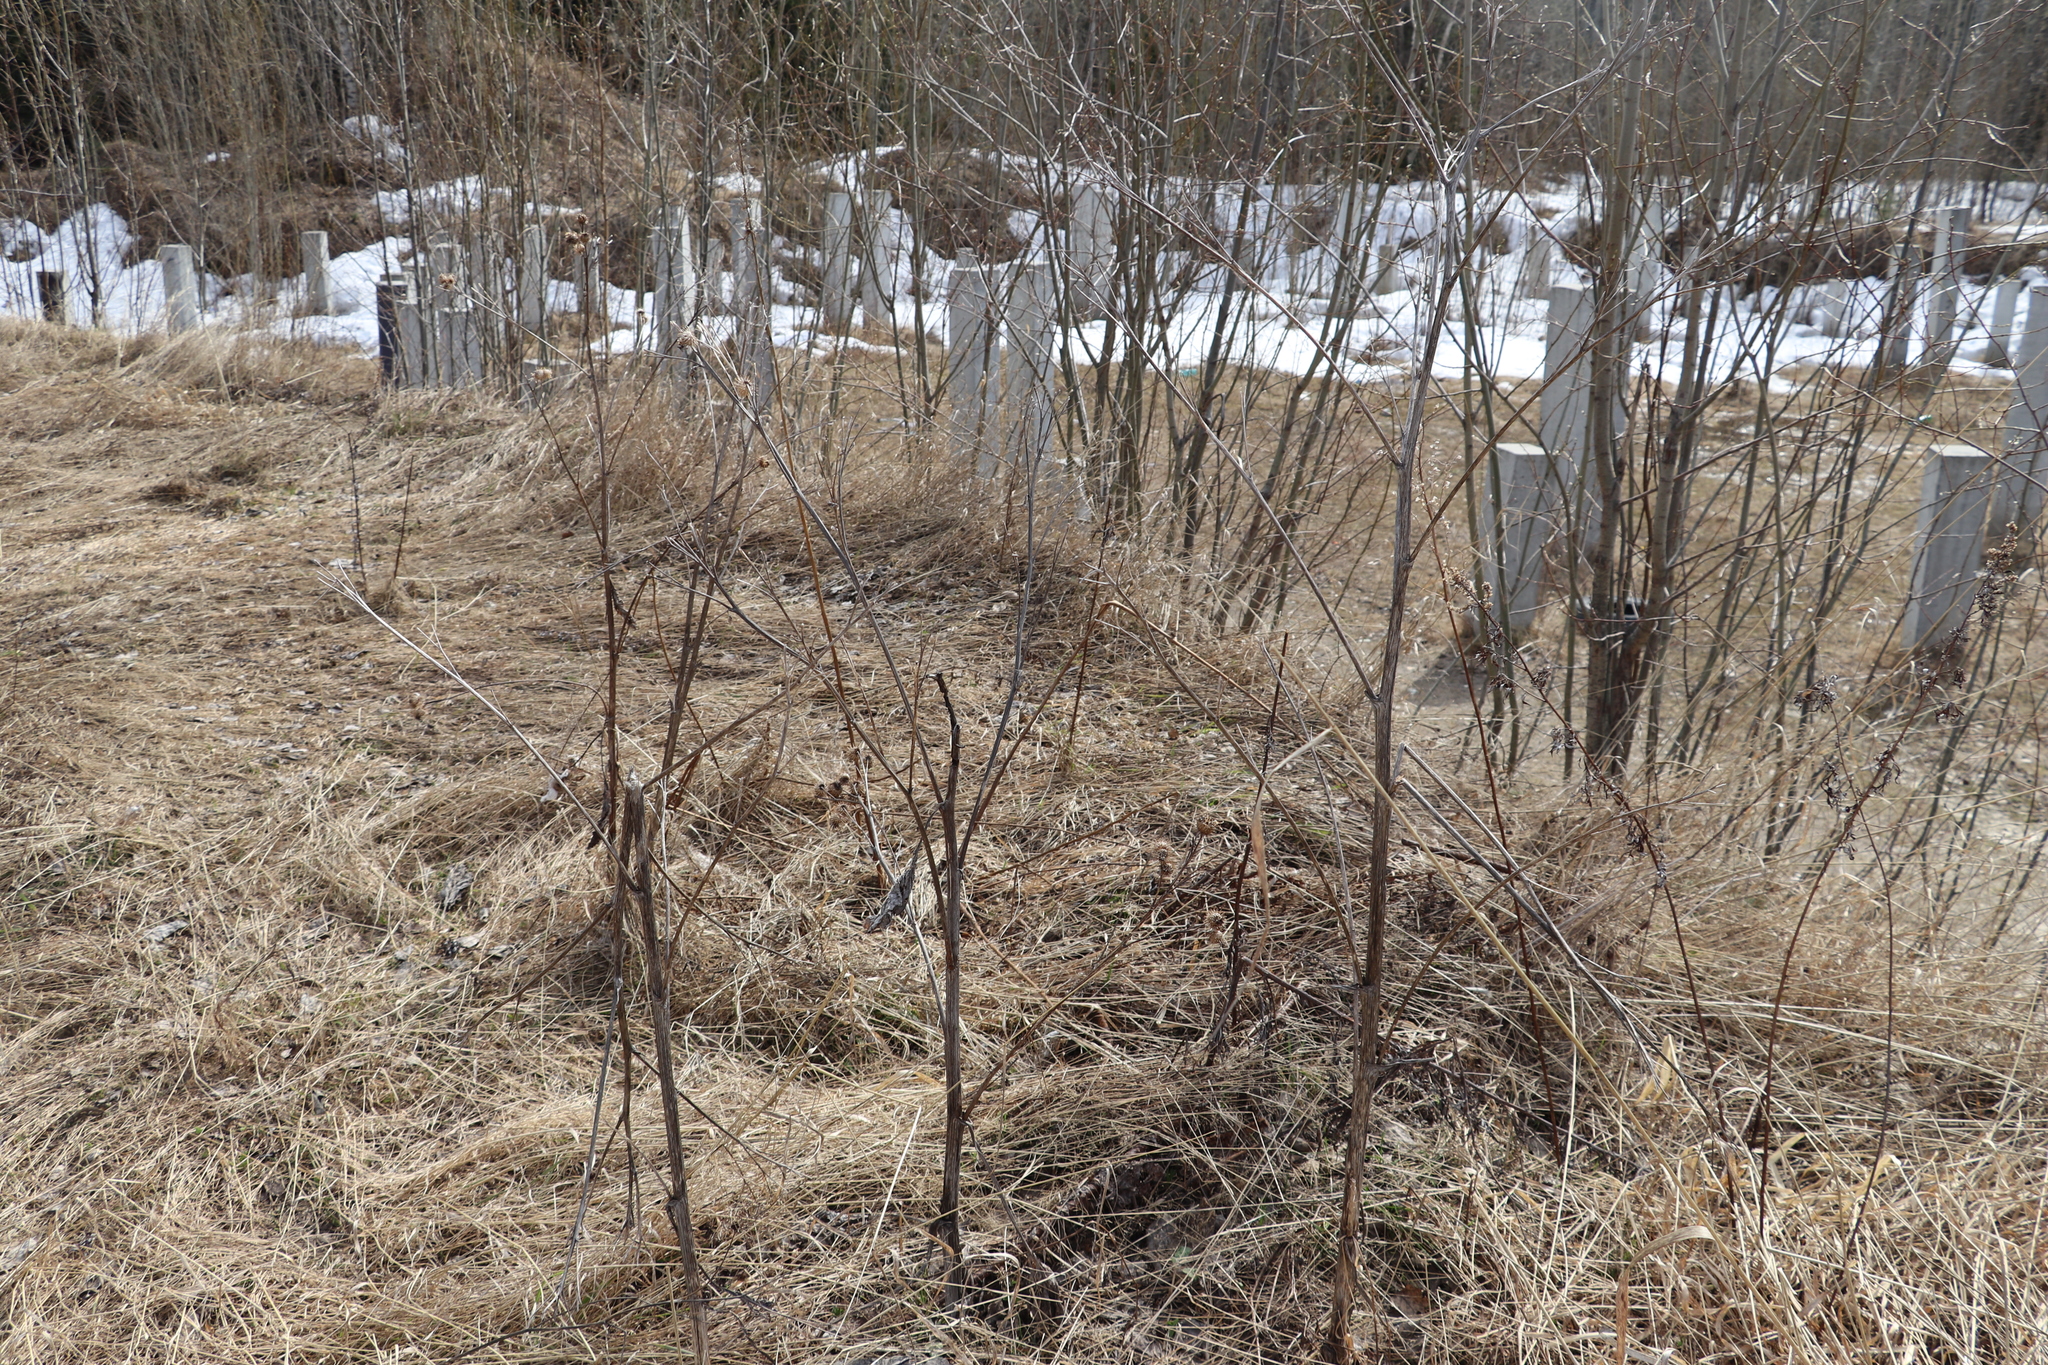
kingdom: Plantae
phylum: Tracheophyta
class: Magnoliopsida
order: Asterales
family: Asteraceae
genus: Arctium
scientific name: Arctium tomentosum
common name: Woolly burdock
